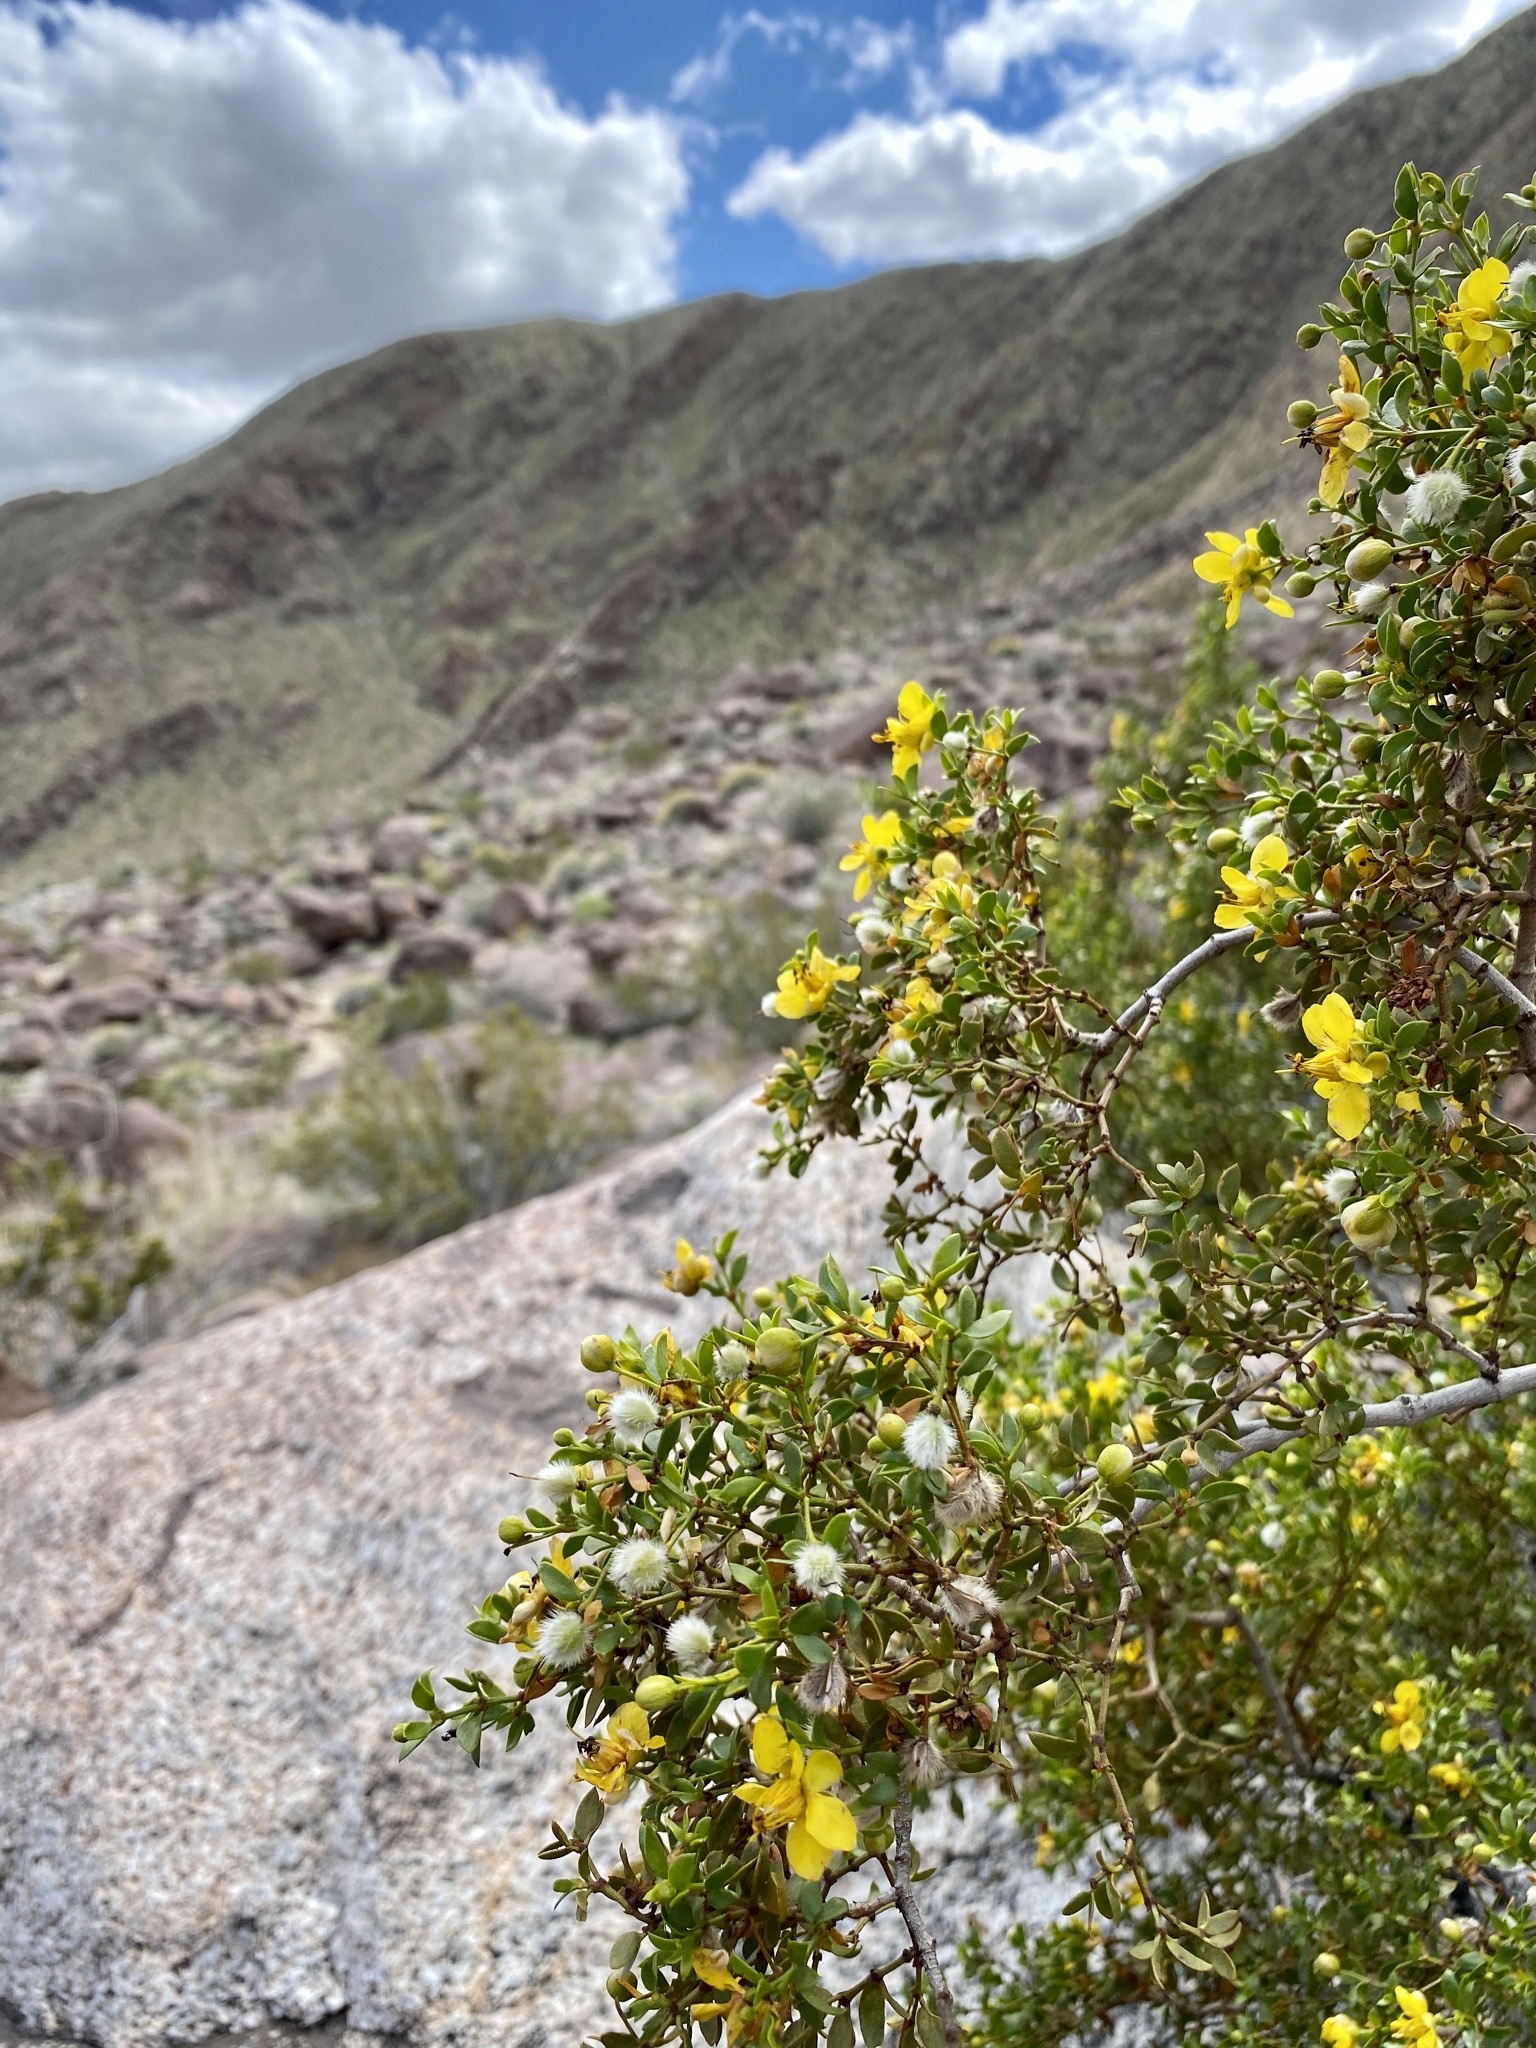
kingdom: Plantae
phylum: Tracheophyta
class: Magnoliopsida
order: Zygophyllales
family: Zygophyllaceae
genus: Larrea
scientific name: Larrea tridentata
